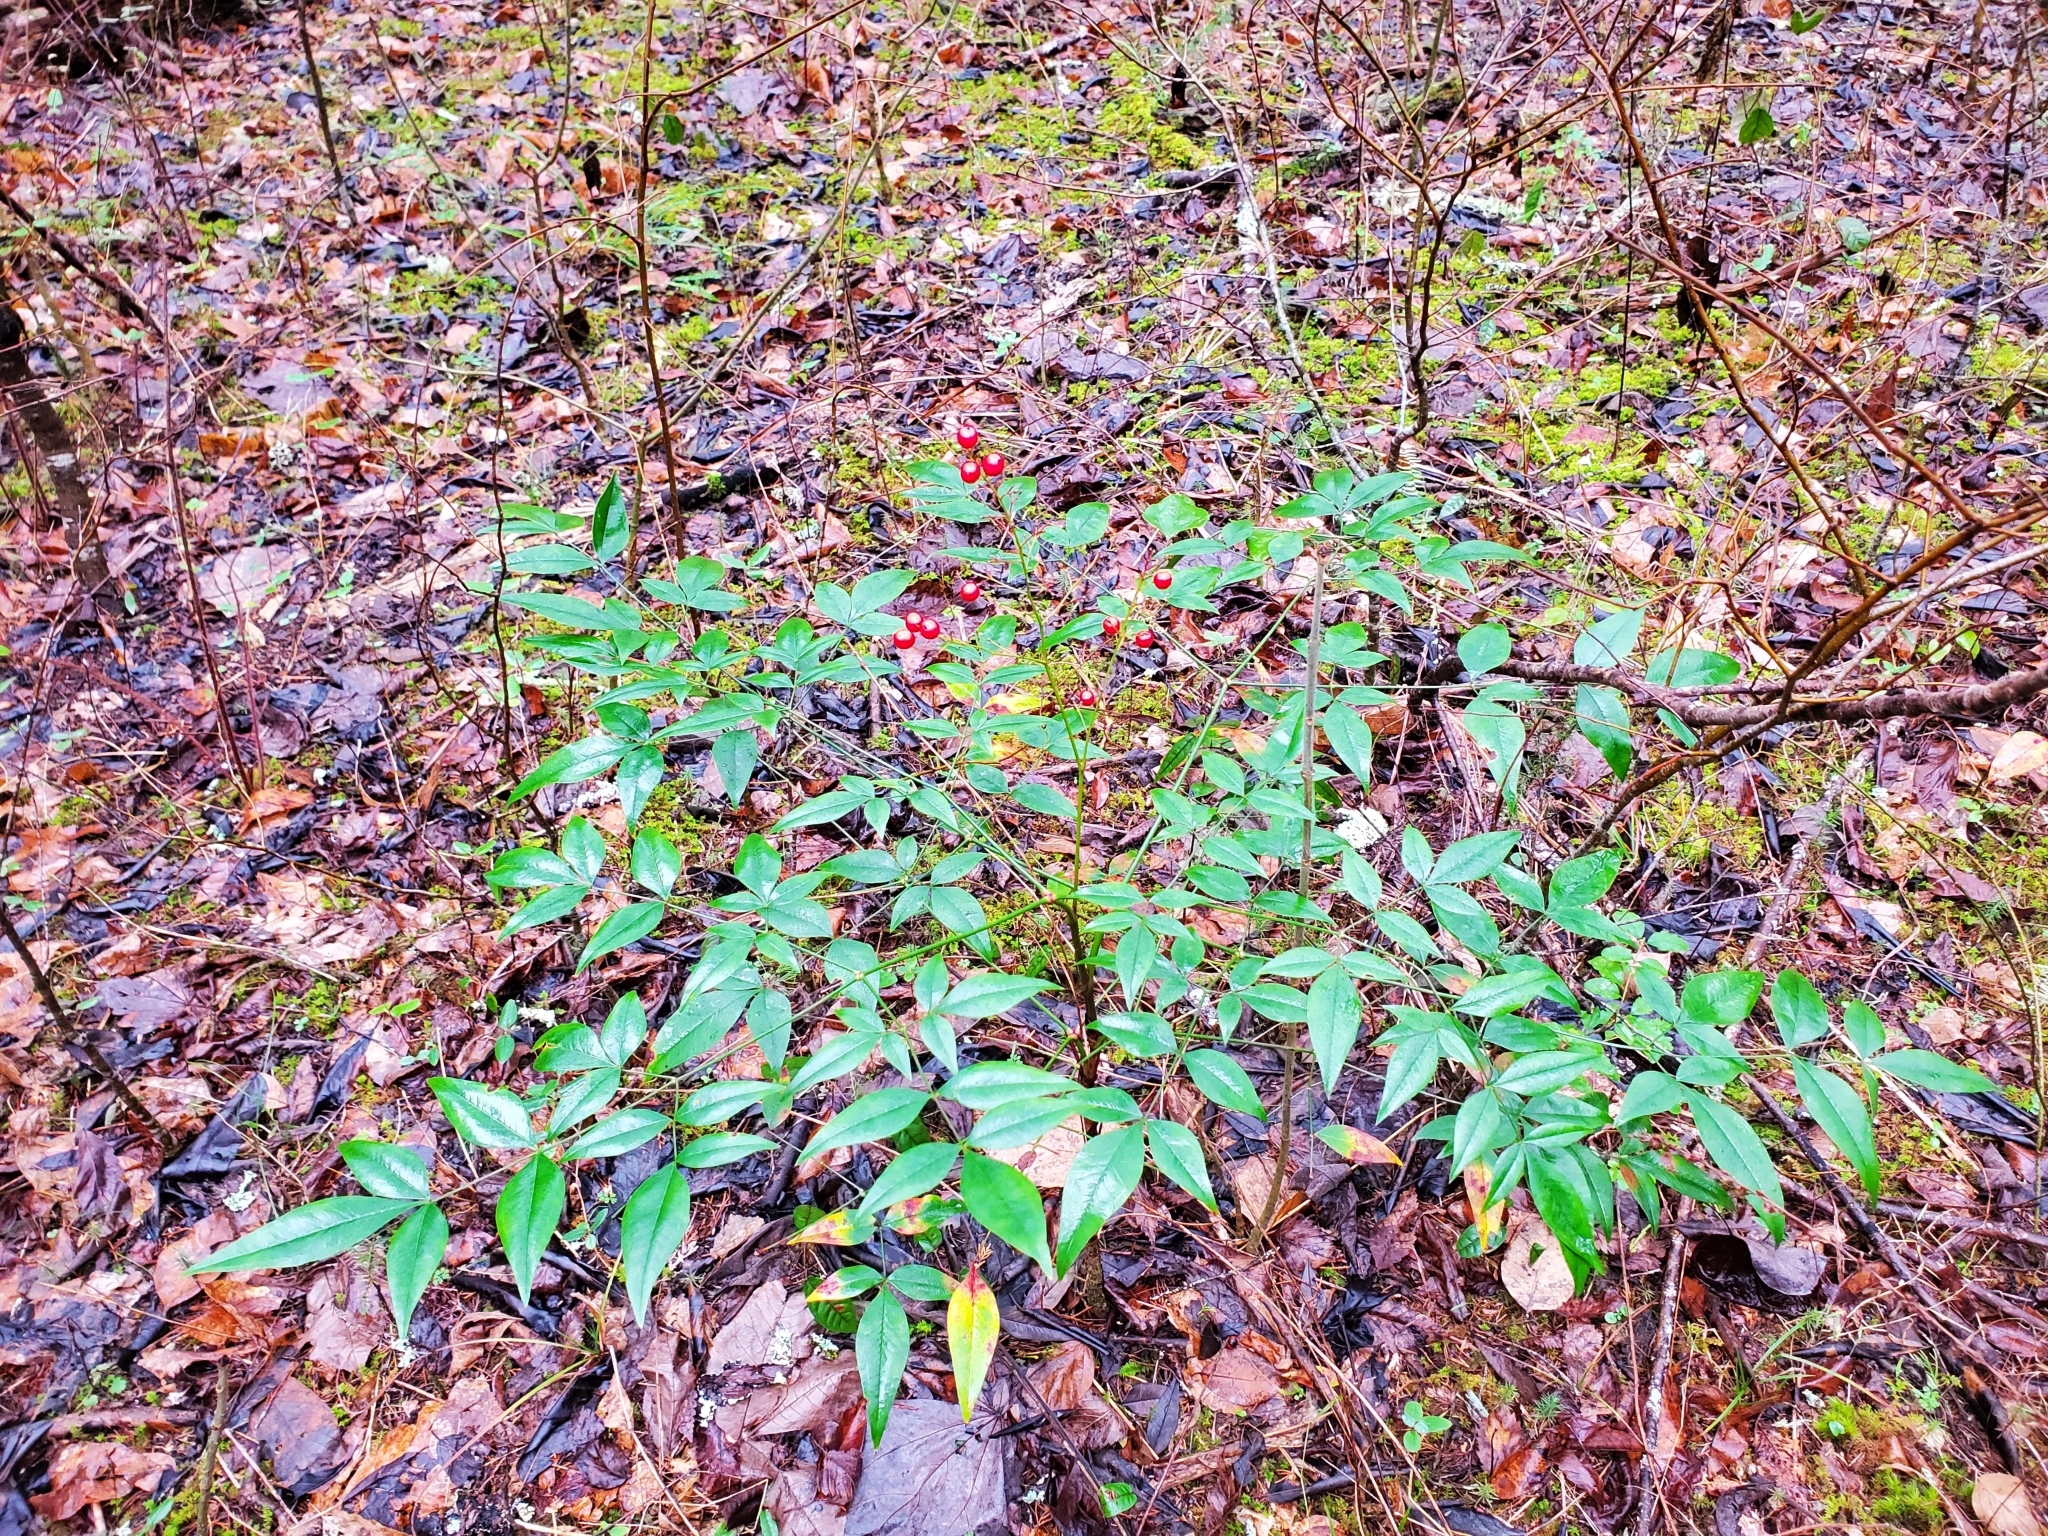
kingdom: Plantae
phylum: Tracheophyta
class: Magnoliopsida
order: Ranunculales
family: Berberidaceae
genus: Nandina
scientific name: Nandina domestica
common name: Sacred bamboo
